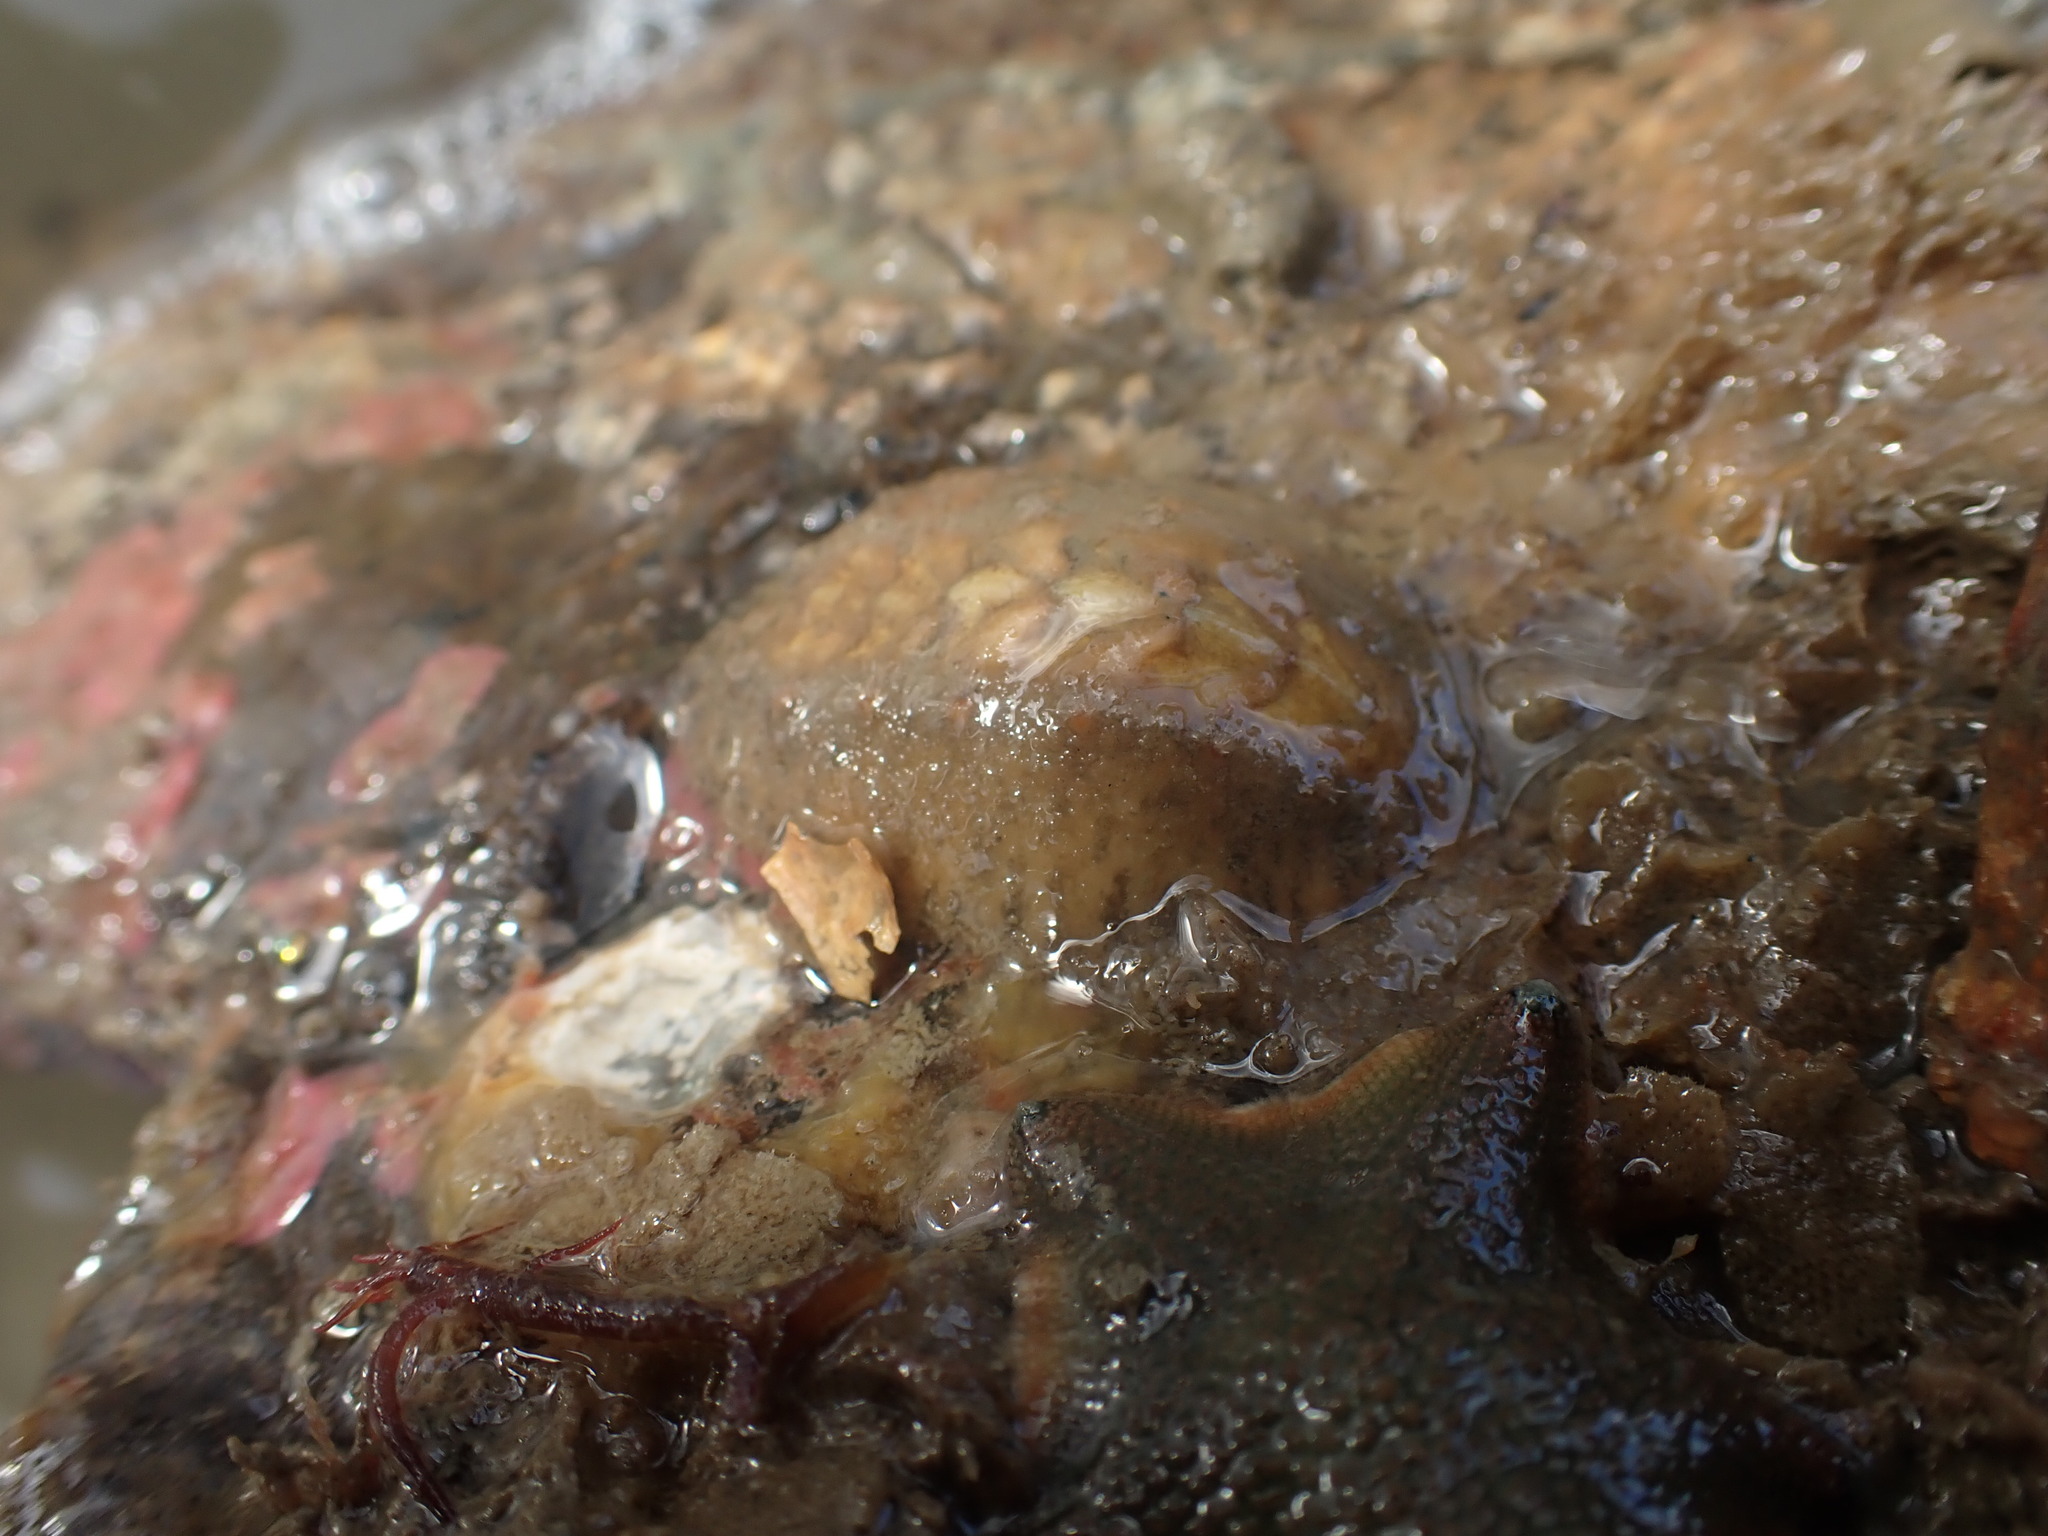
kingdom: Animalia
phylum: Mollusca
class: Polyplacophora
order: Chitonida
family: Acanthochitonidae
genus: Notoplax
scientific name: Notoplax
